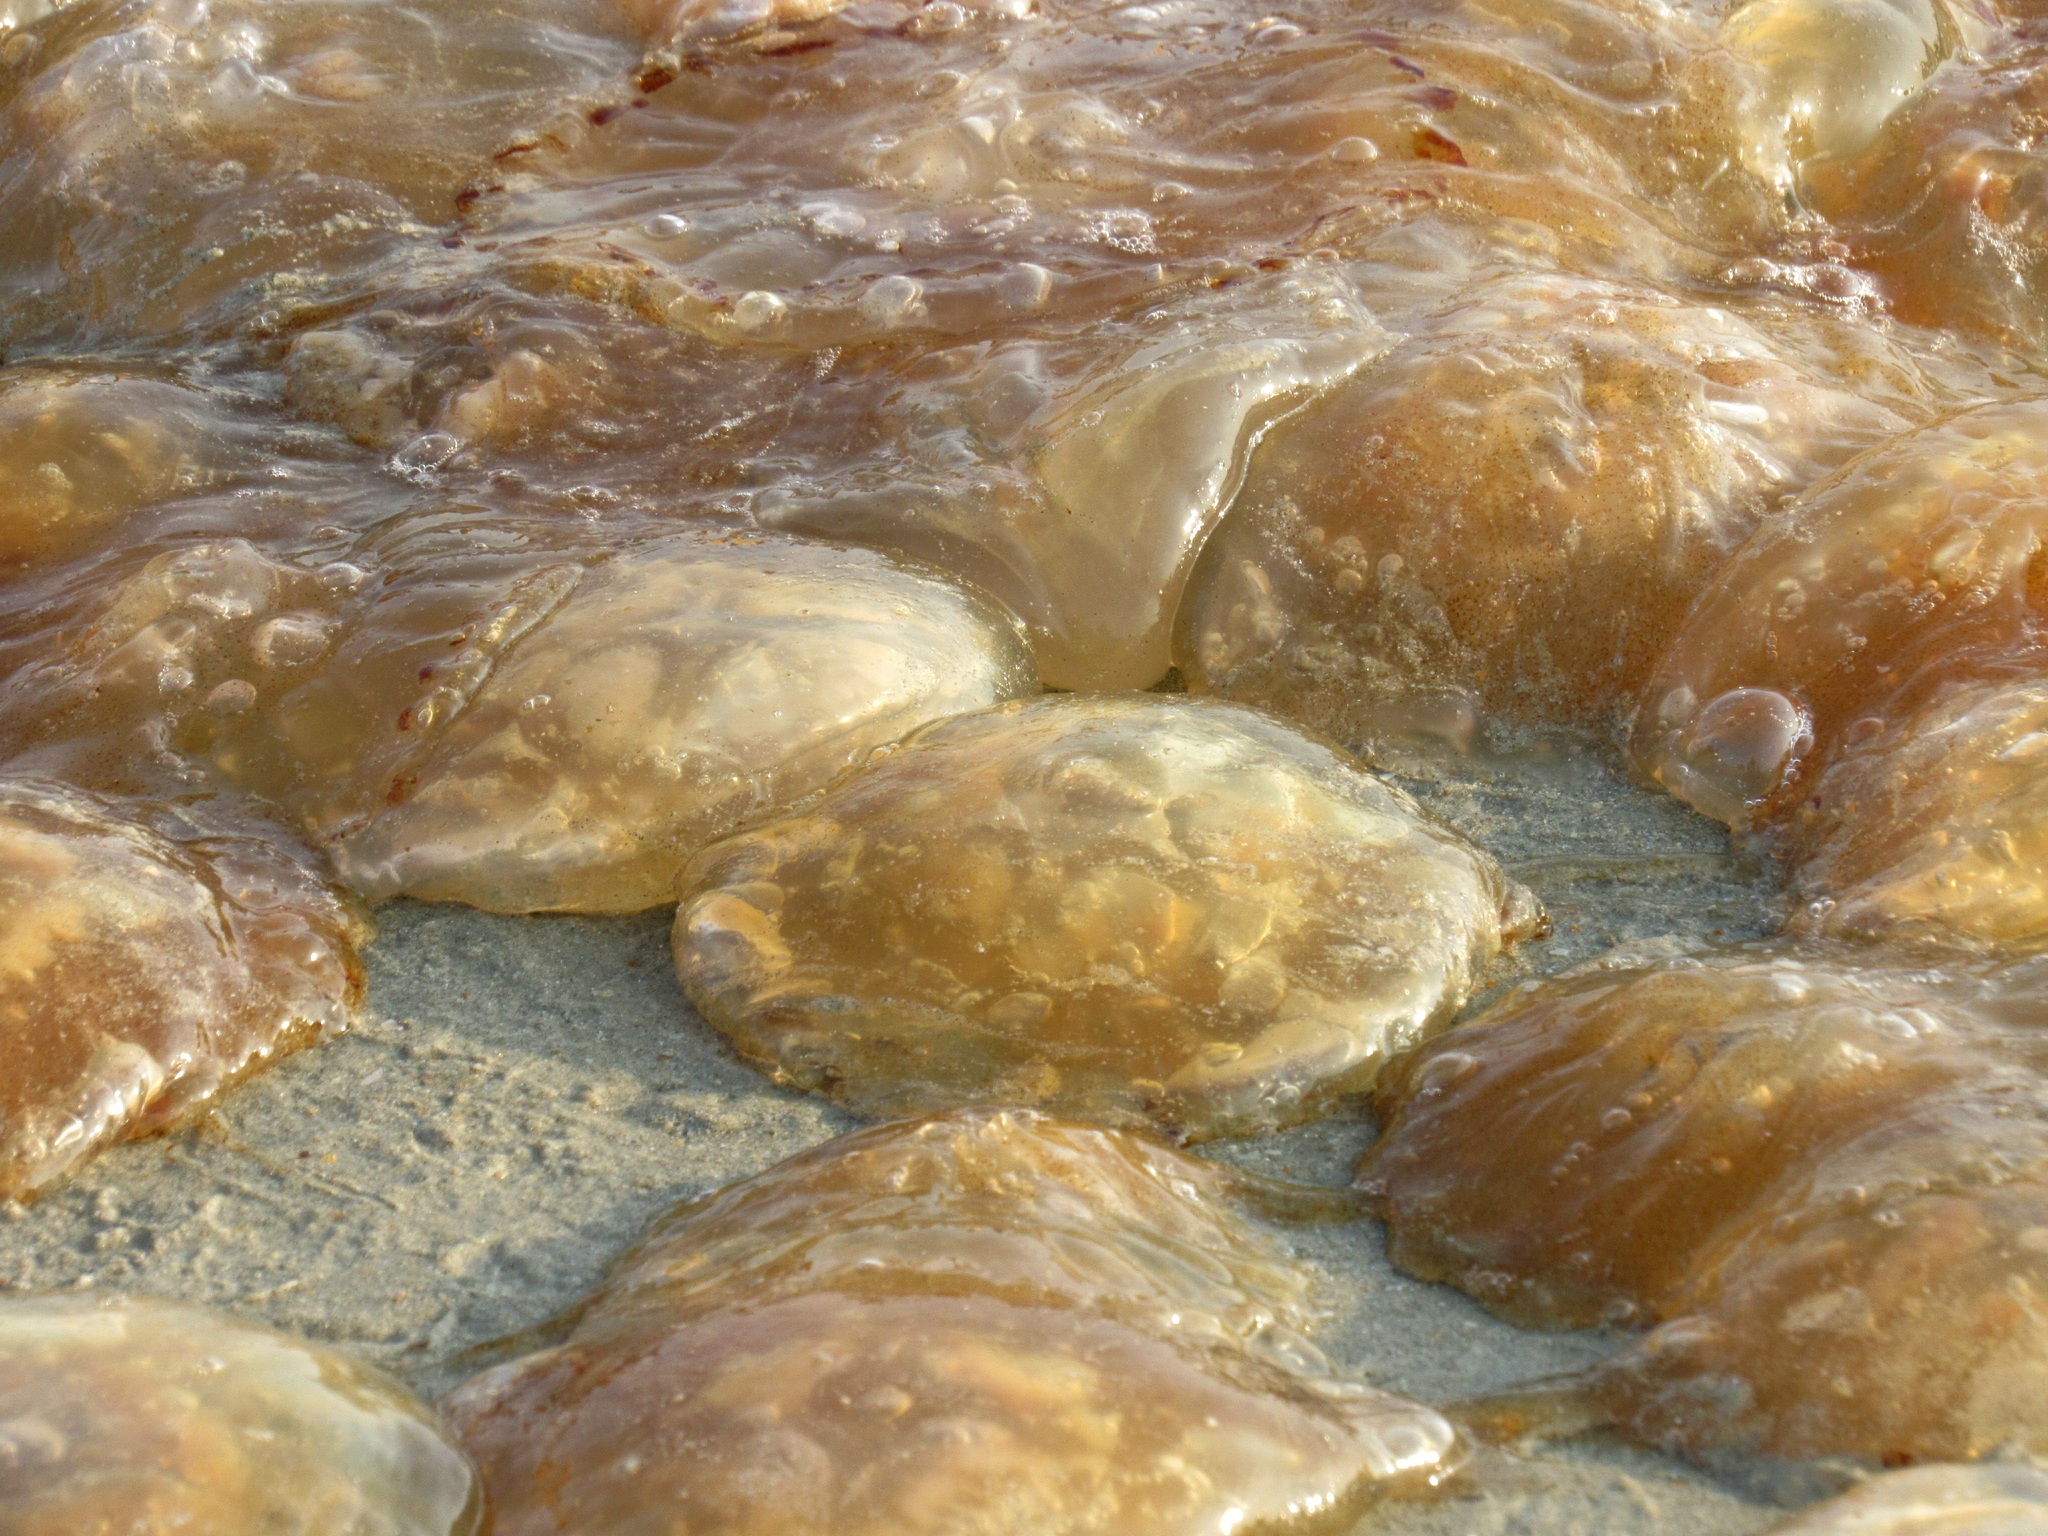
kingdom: Animalia
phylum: Cnidaria
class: Scyphozoa
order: Semaeostomeae
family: Pelagiidae
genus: Chrysaora
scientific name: Chrysaora chinensis
